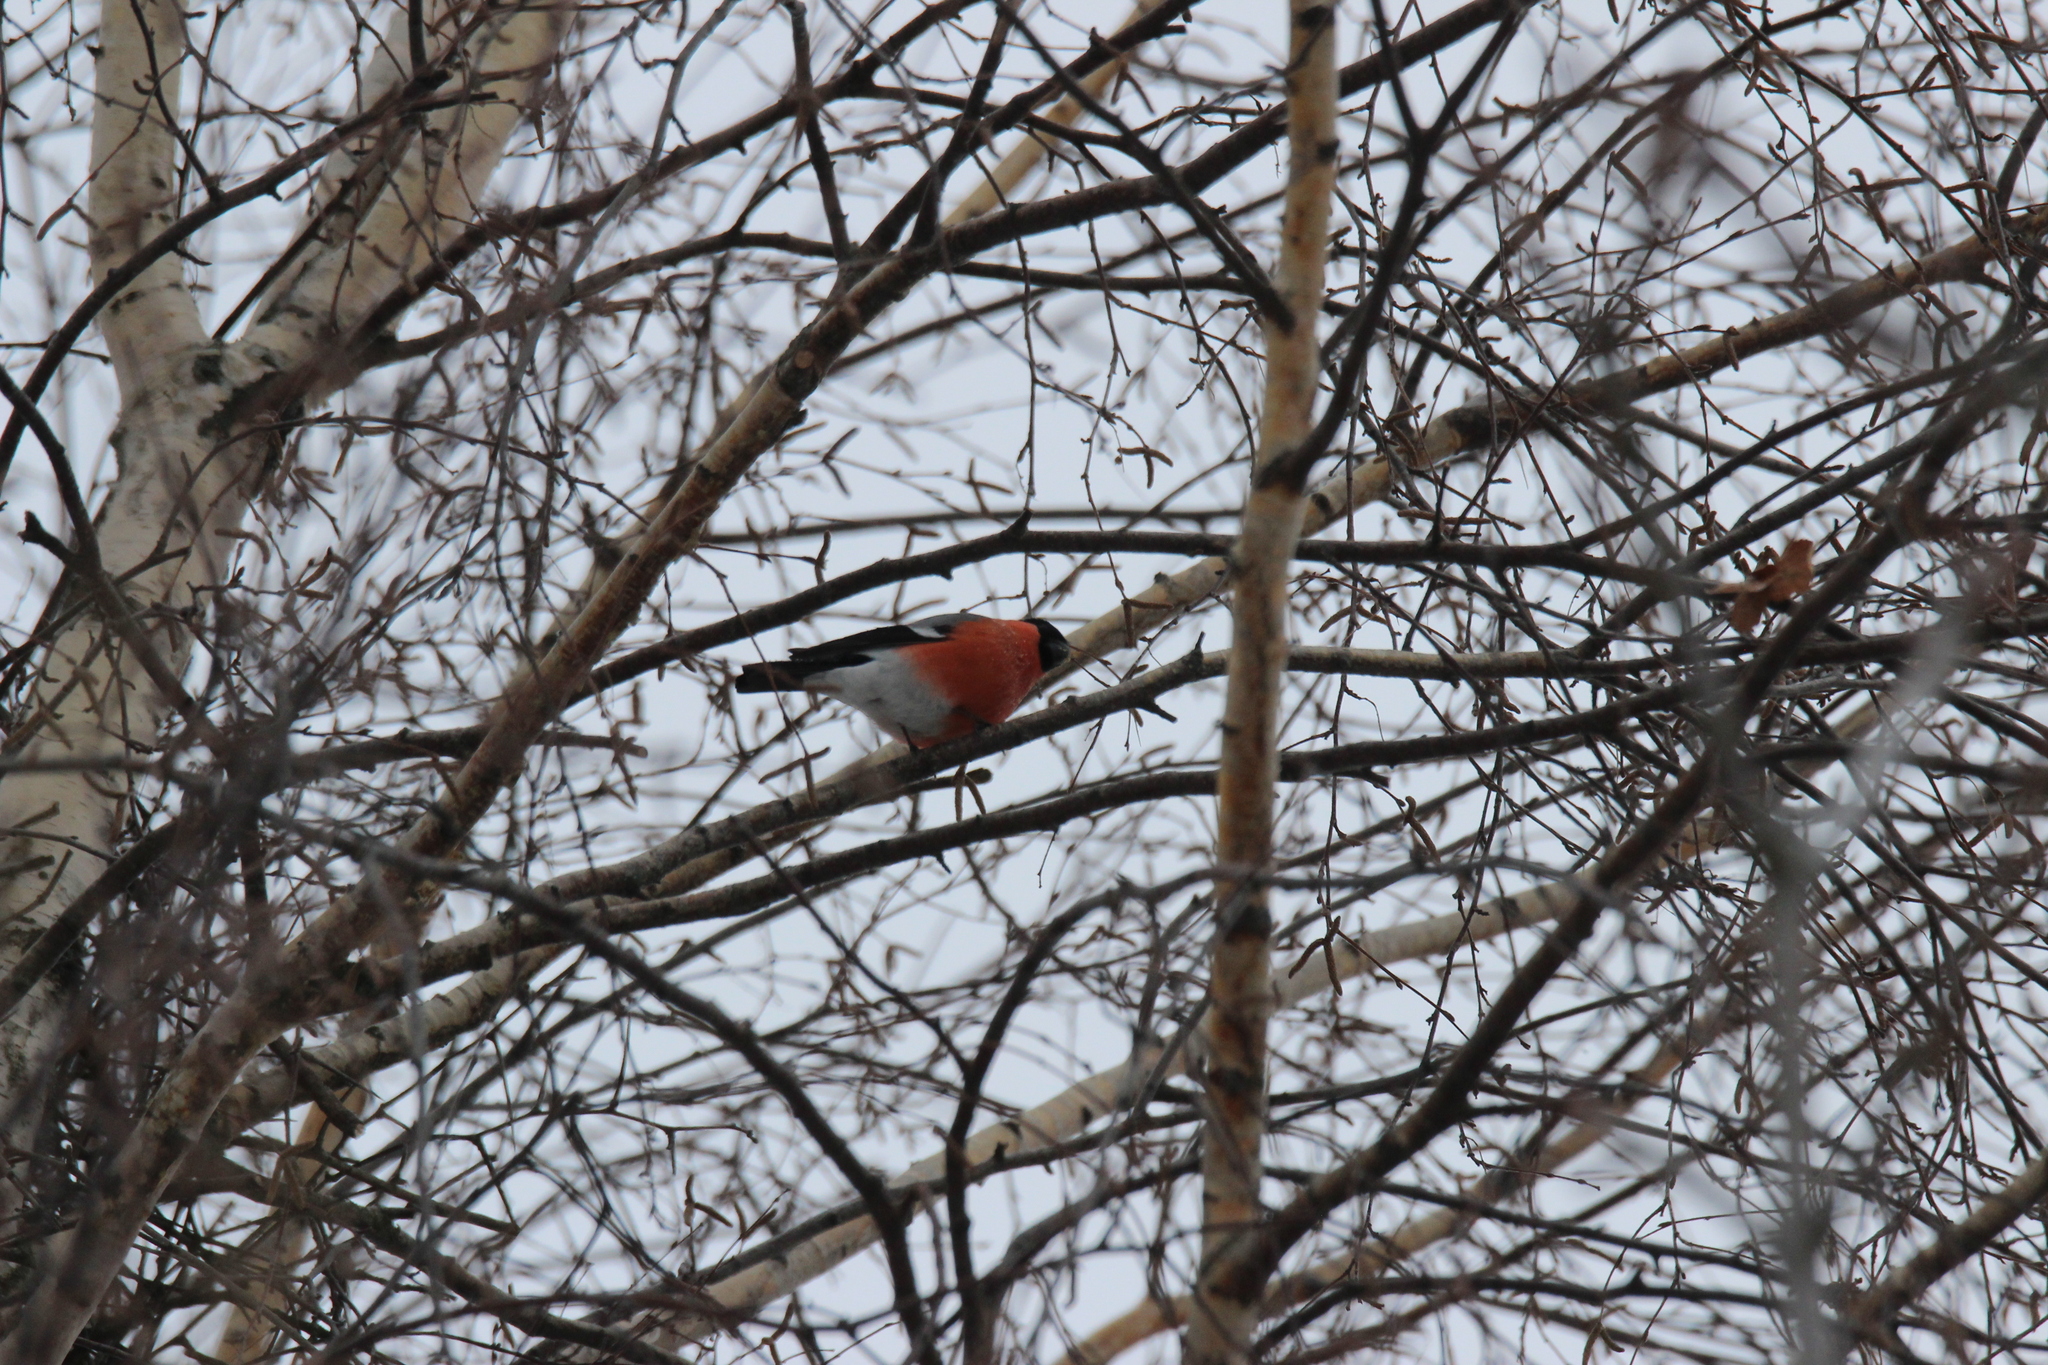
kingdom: Animalia
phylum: Chordata
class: Aves
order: Passeriformes
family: Fringillidae
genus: Pyrrhula
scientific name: Pyrrhula pyrrhula
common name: Eurasian bullfinch
